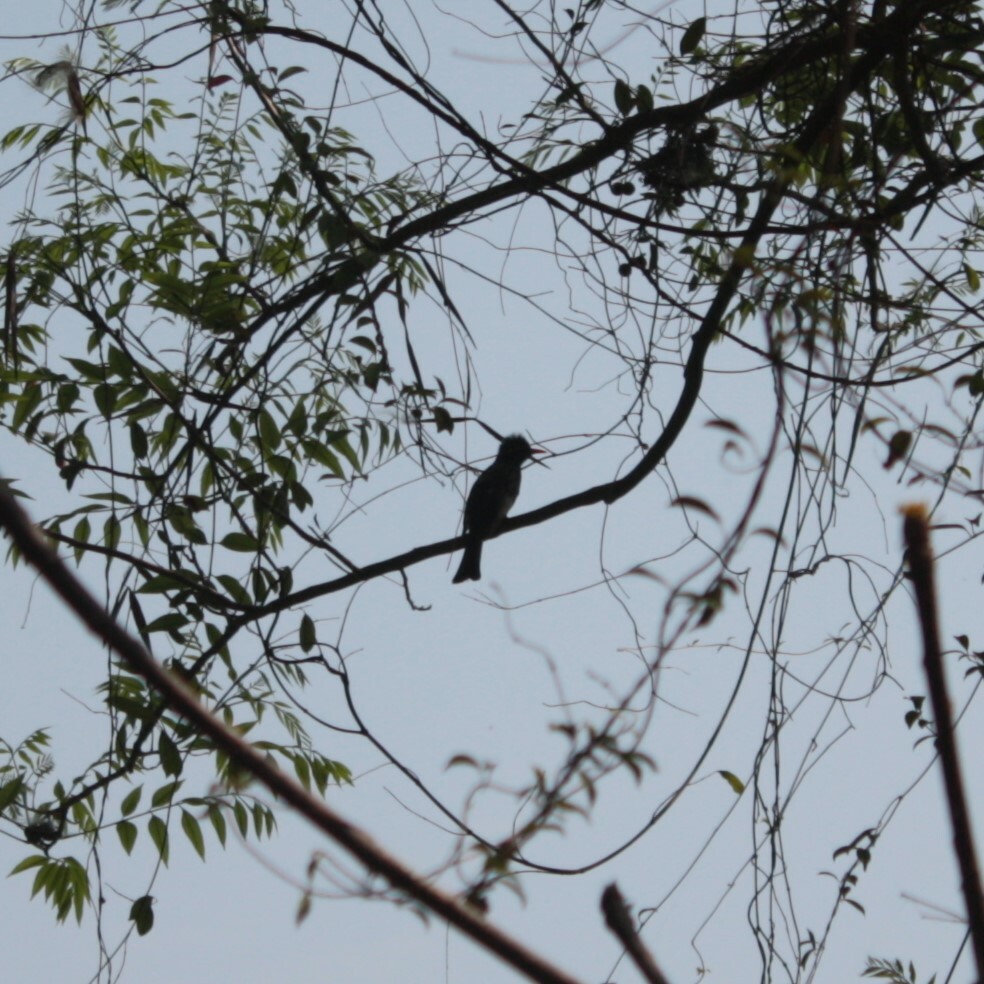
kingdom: Animalia
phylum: Chordata
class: Aves
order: Passeriformes
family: Pycnonotidae
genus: Hypsipetes
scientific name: Hypsipetes leucocephalus
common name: Black bulbul
